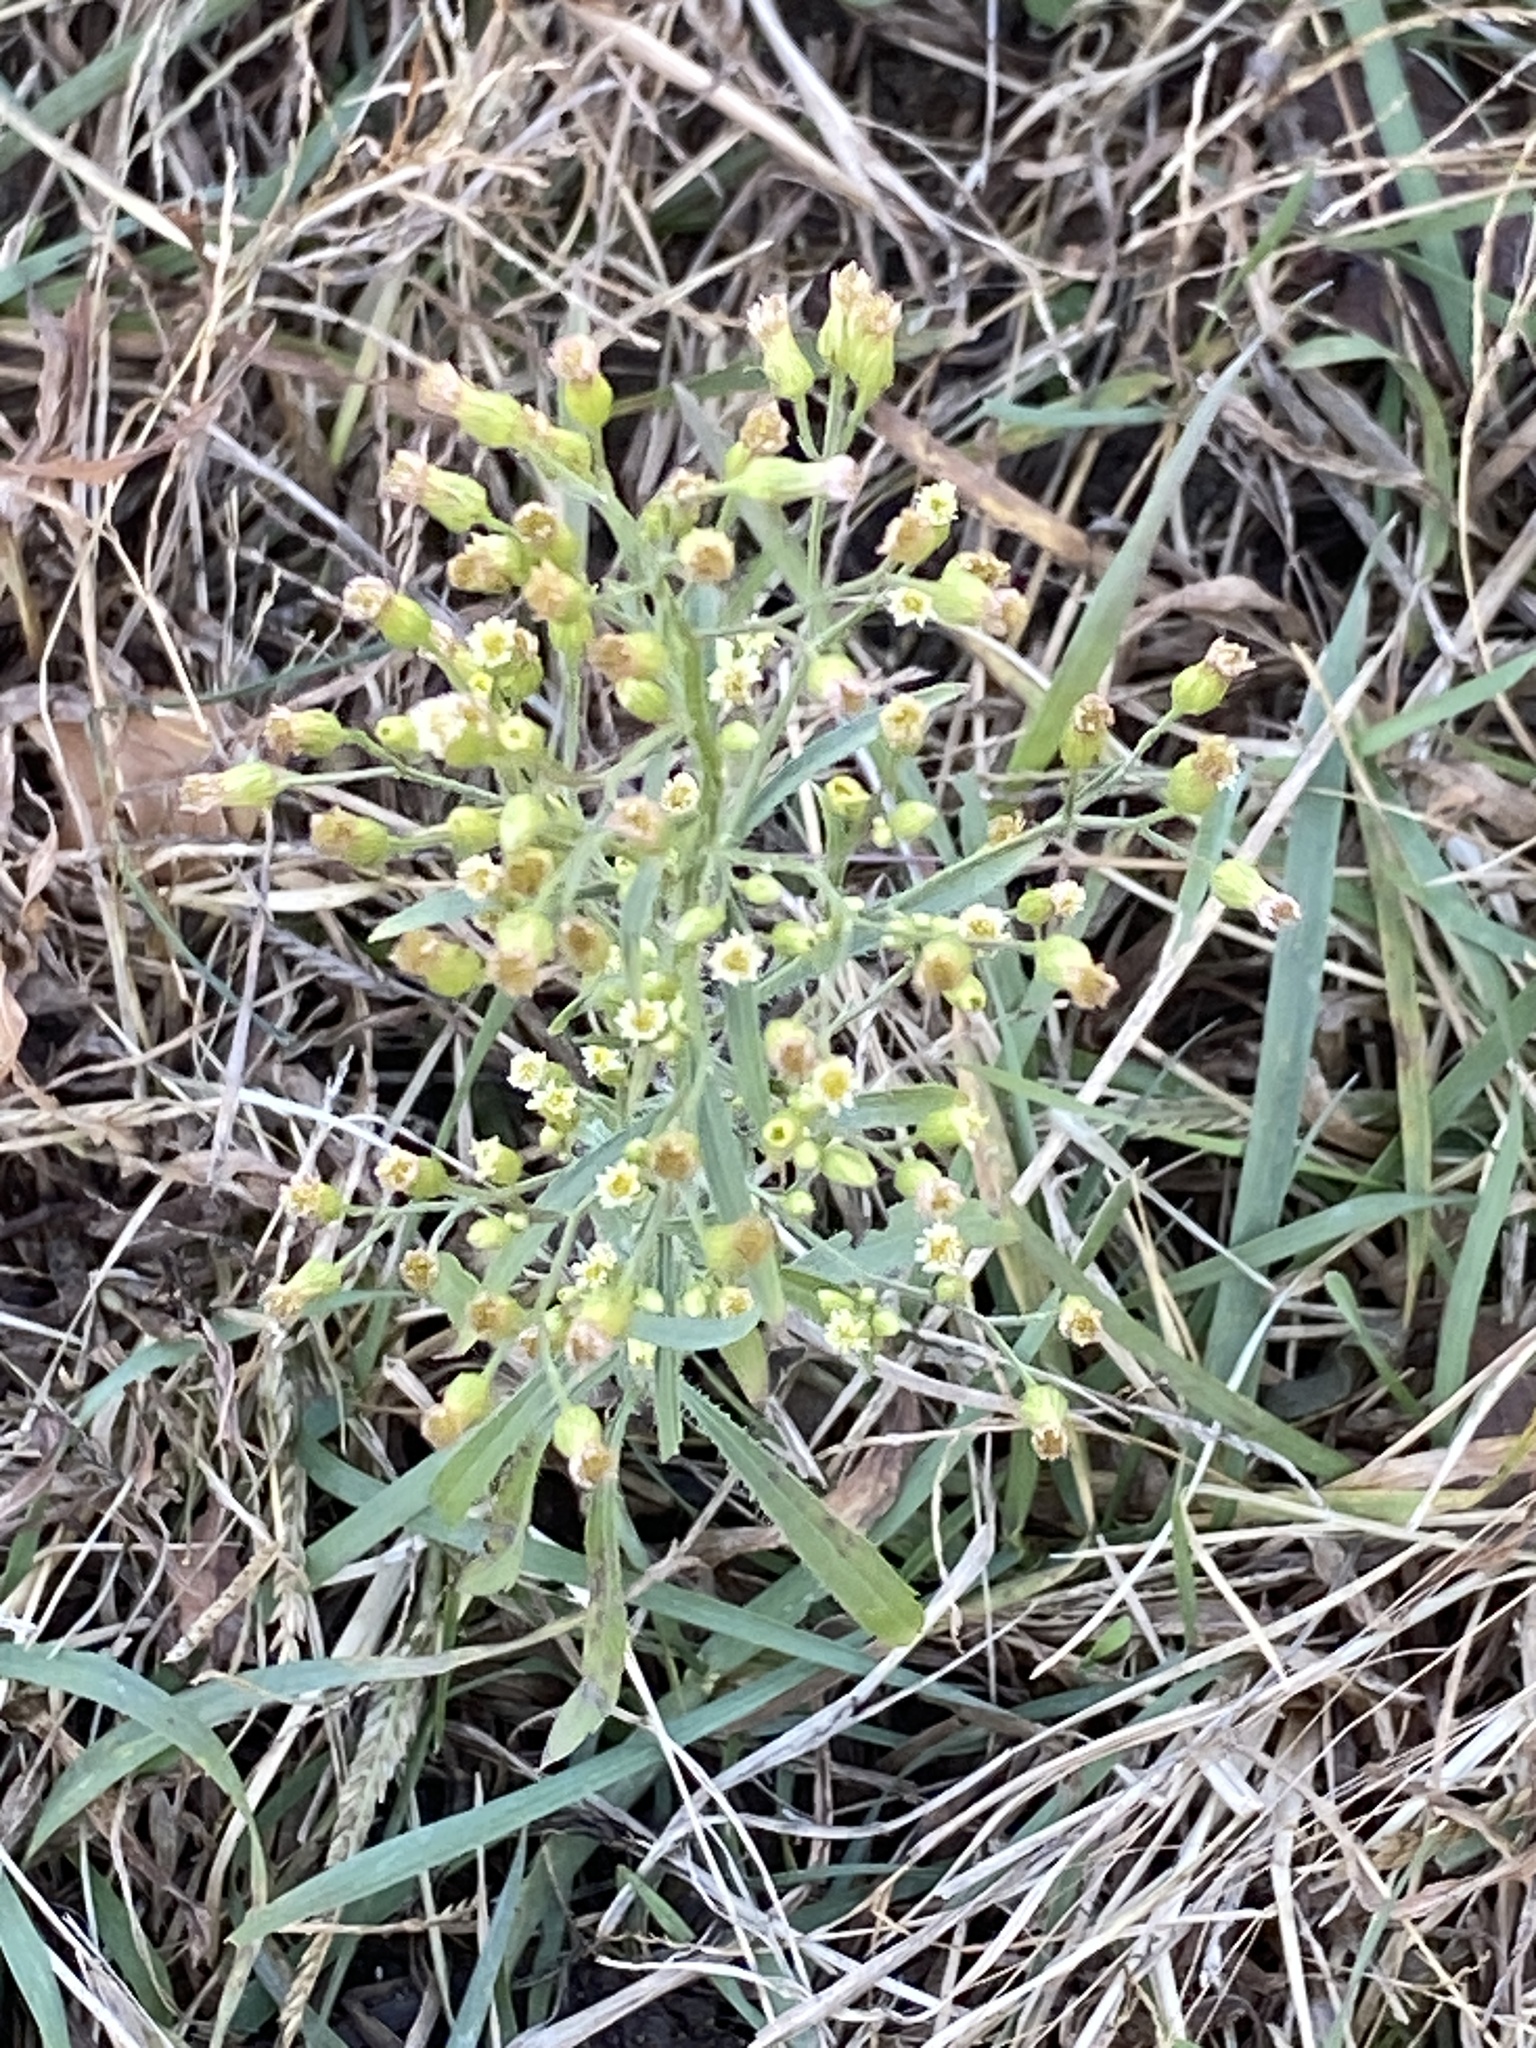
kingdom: Plantae
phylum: Tracheophyta
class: Magnoliopsida
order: Asterales
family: Asteraceae
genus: Erigeron
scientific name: Erigeron canadensis
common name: Canadian fleabane
